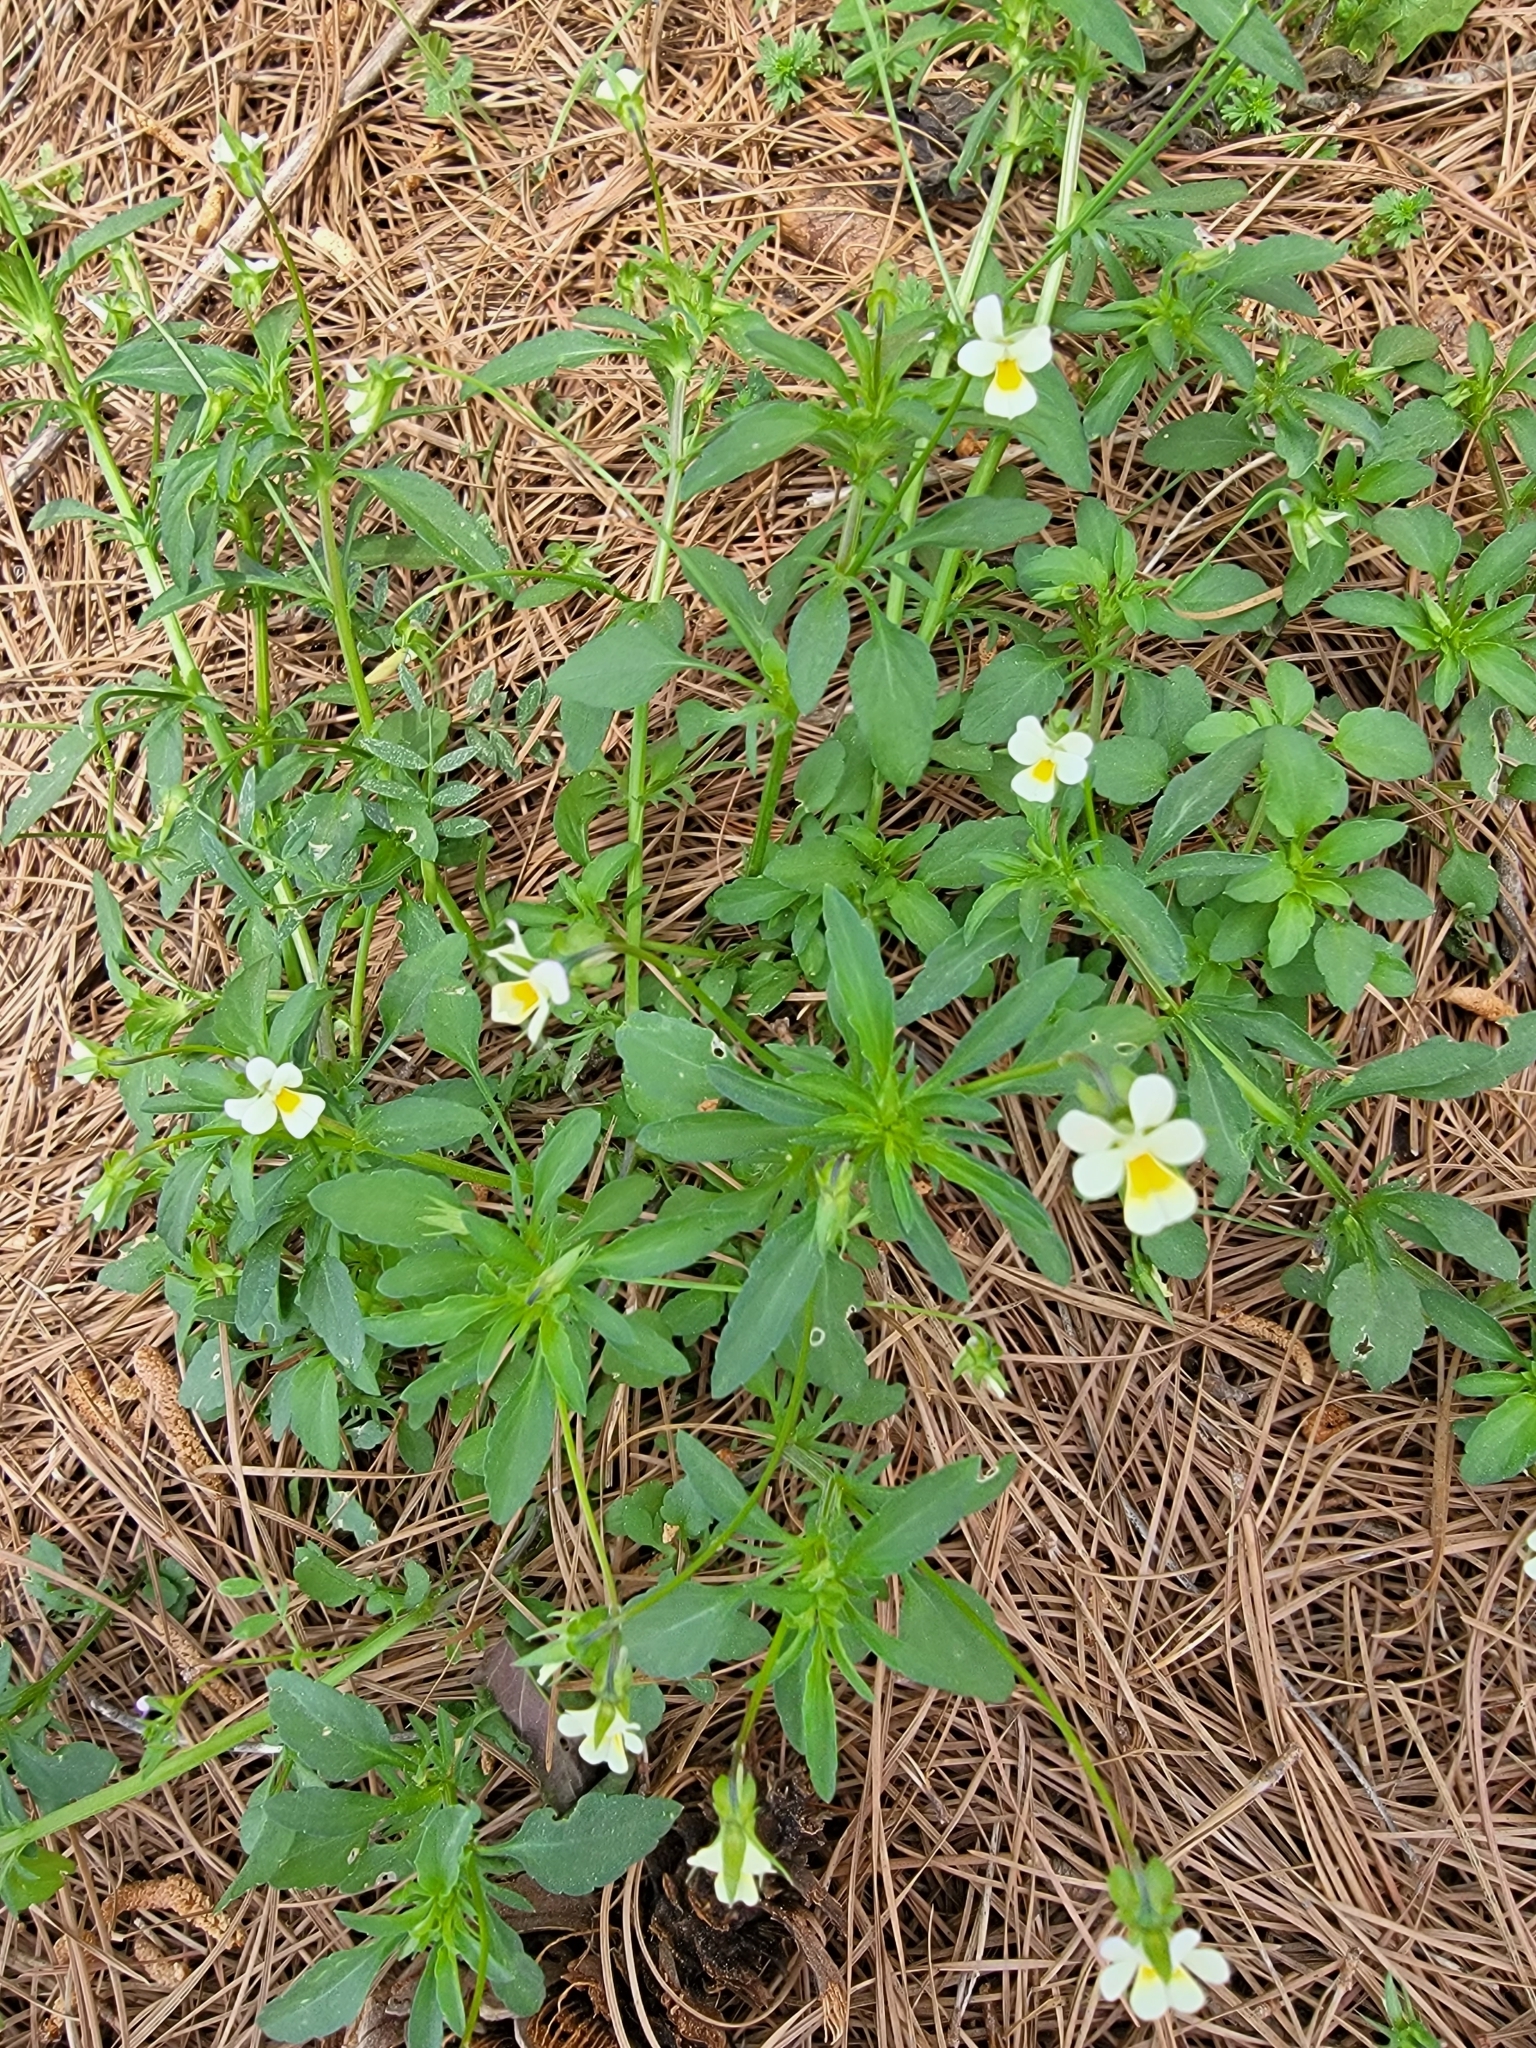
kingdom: Plantae
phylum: Tracheophyta
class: Magnoliopsida
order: Malpighiales
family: Violaceae
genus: Viola
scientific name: Viola arvensis
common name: Field pansy
